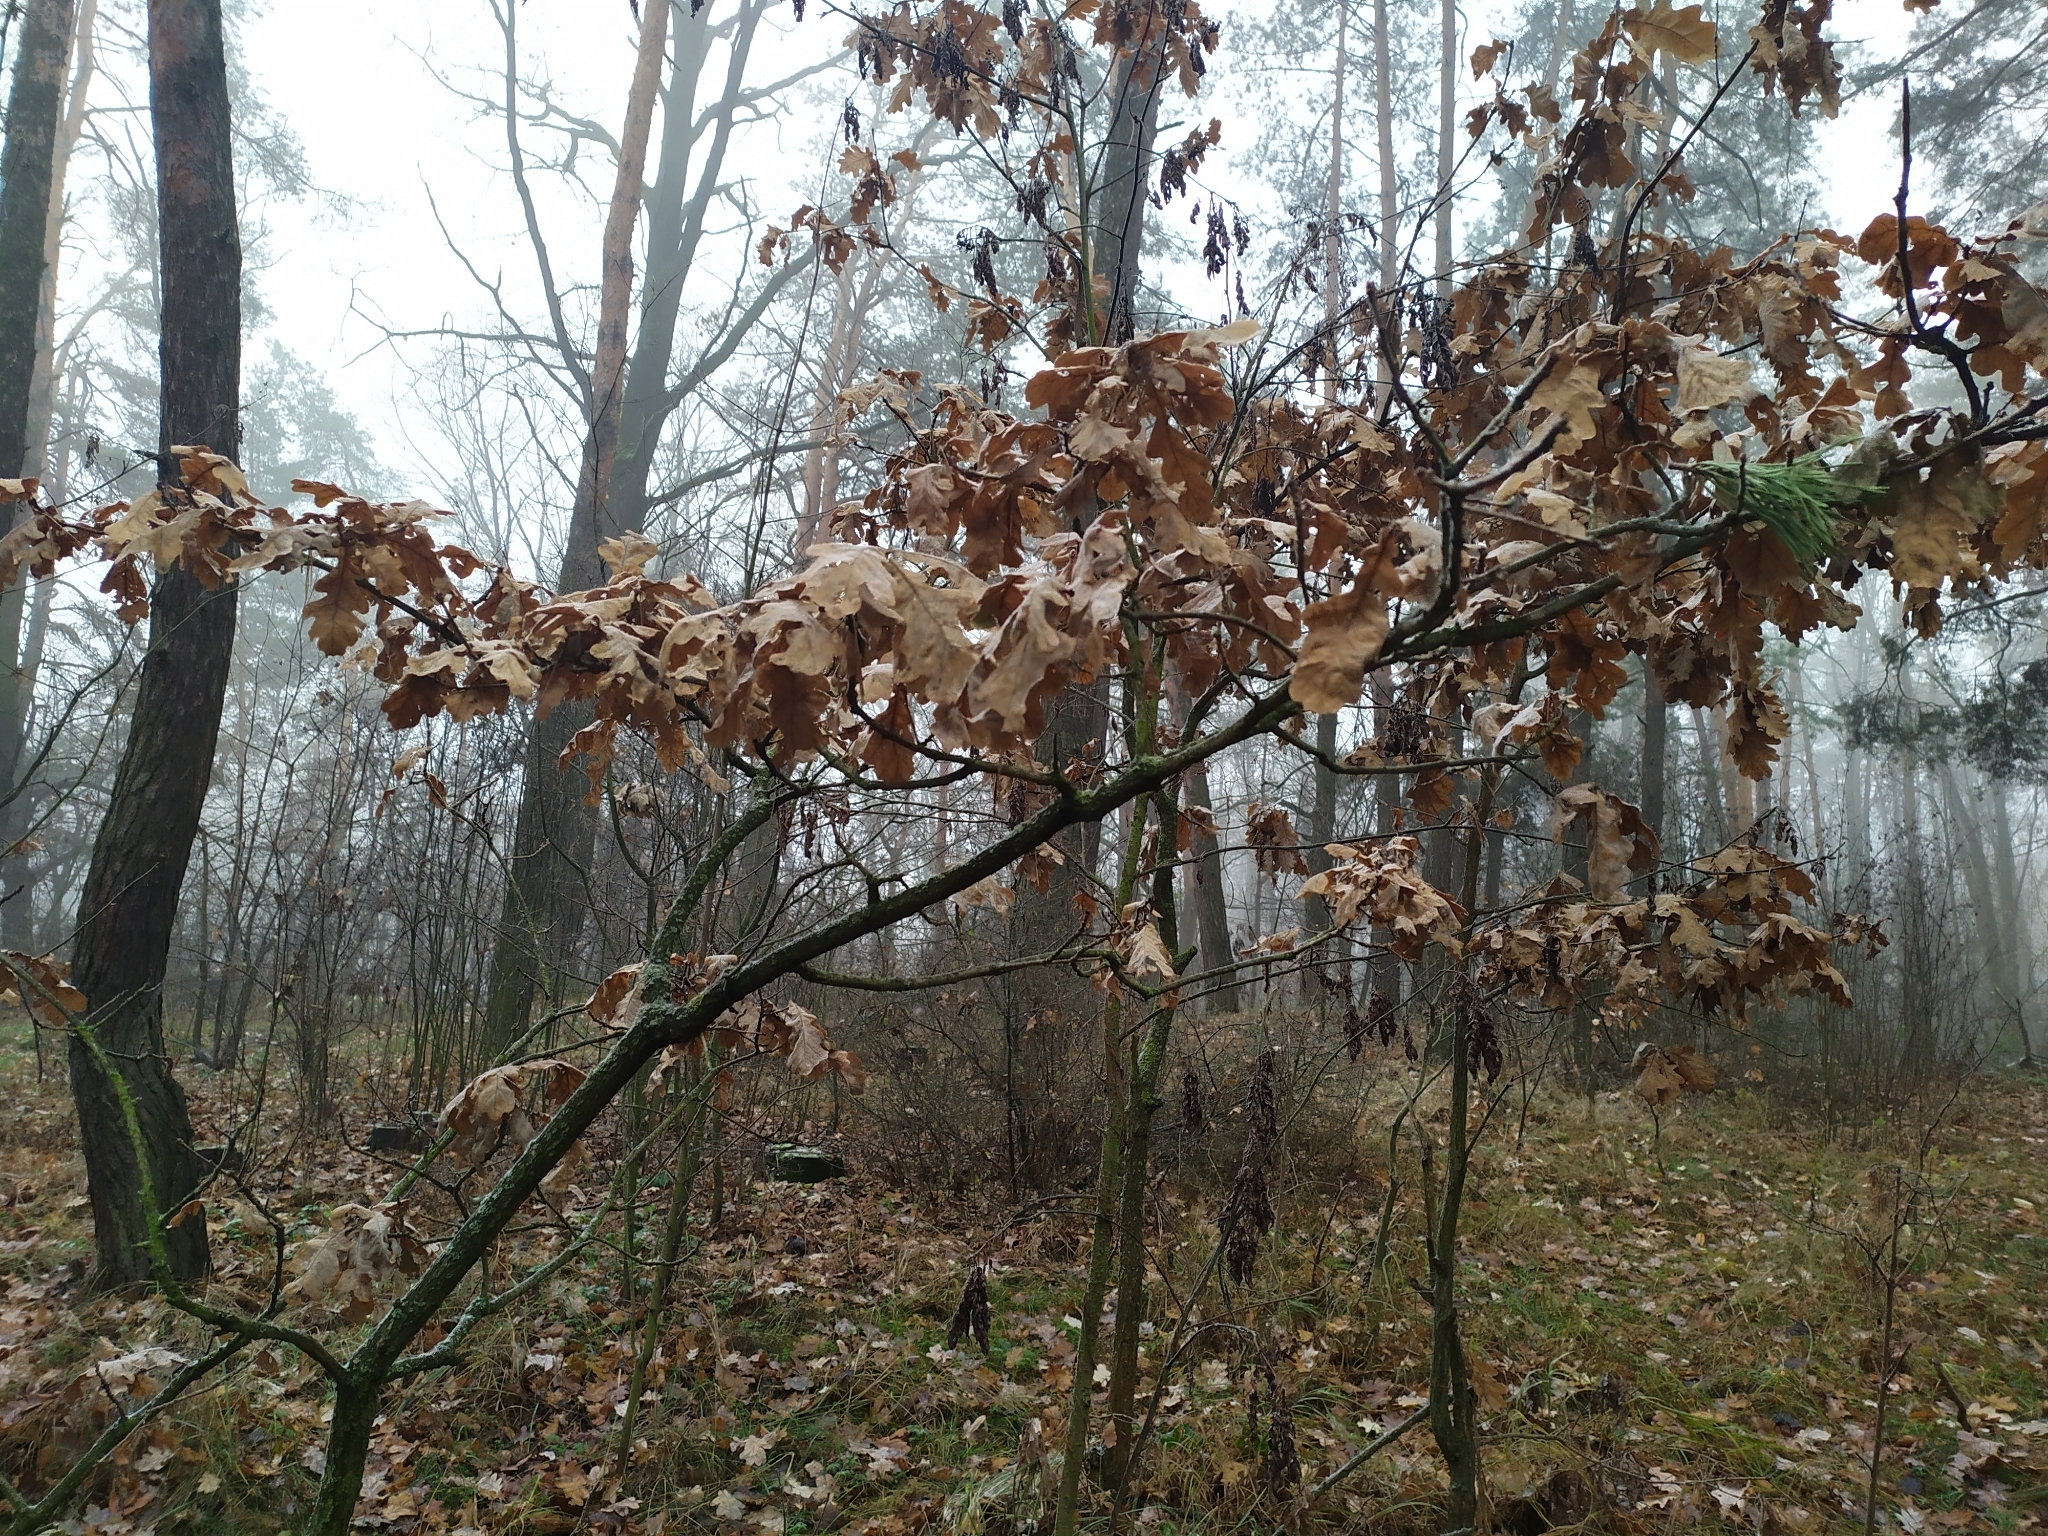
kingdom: Plantae
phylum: Tracheophyta
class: Magnoliopsida
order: Fagales
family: Fagaceae
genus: Quercus
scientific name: Quercus robur
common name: Pedunculate oak
